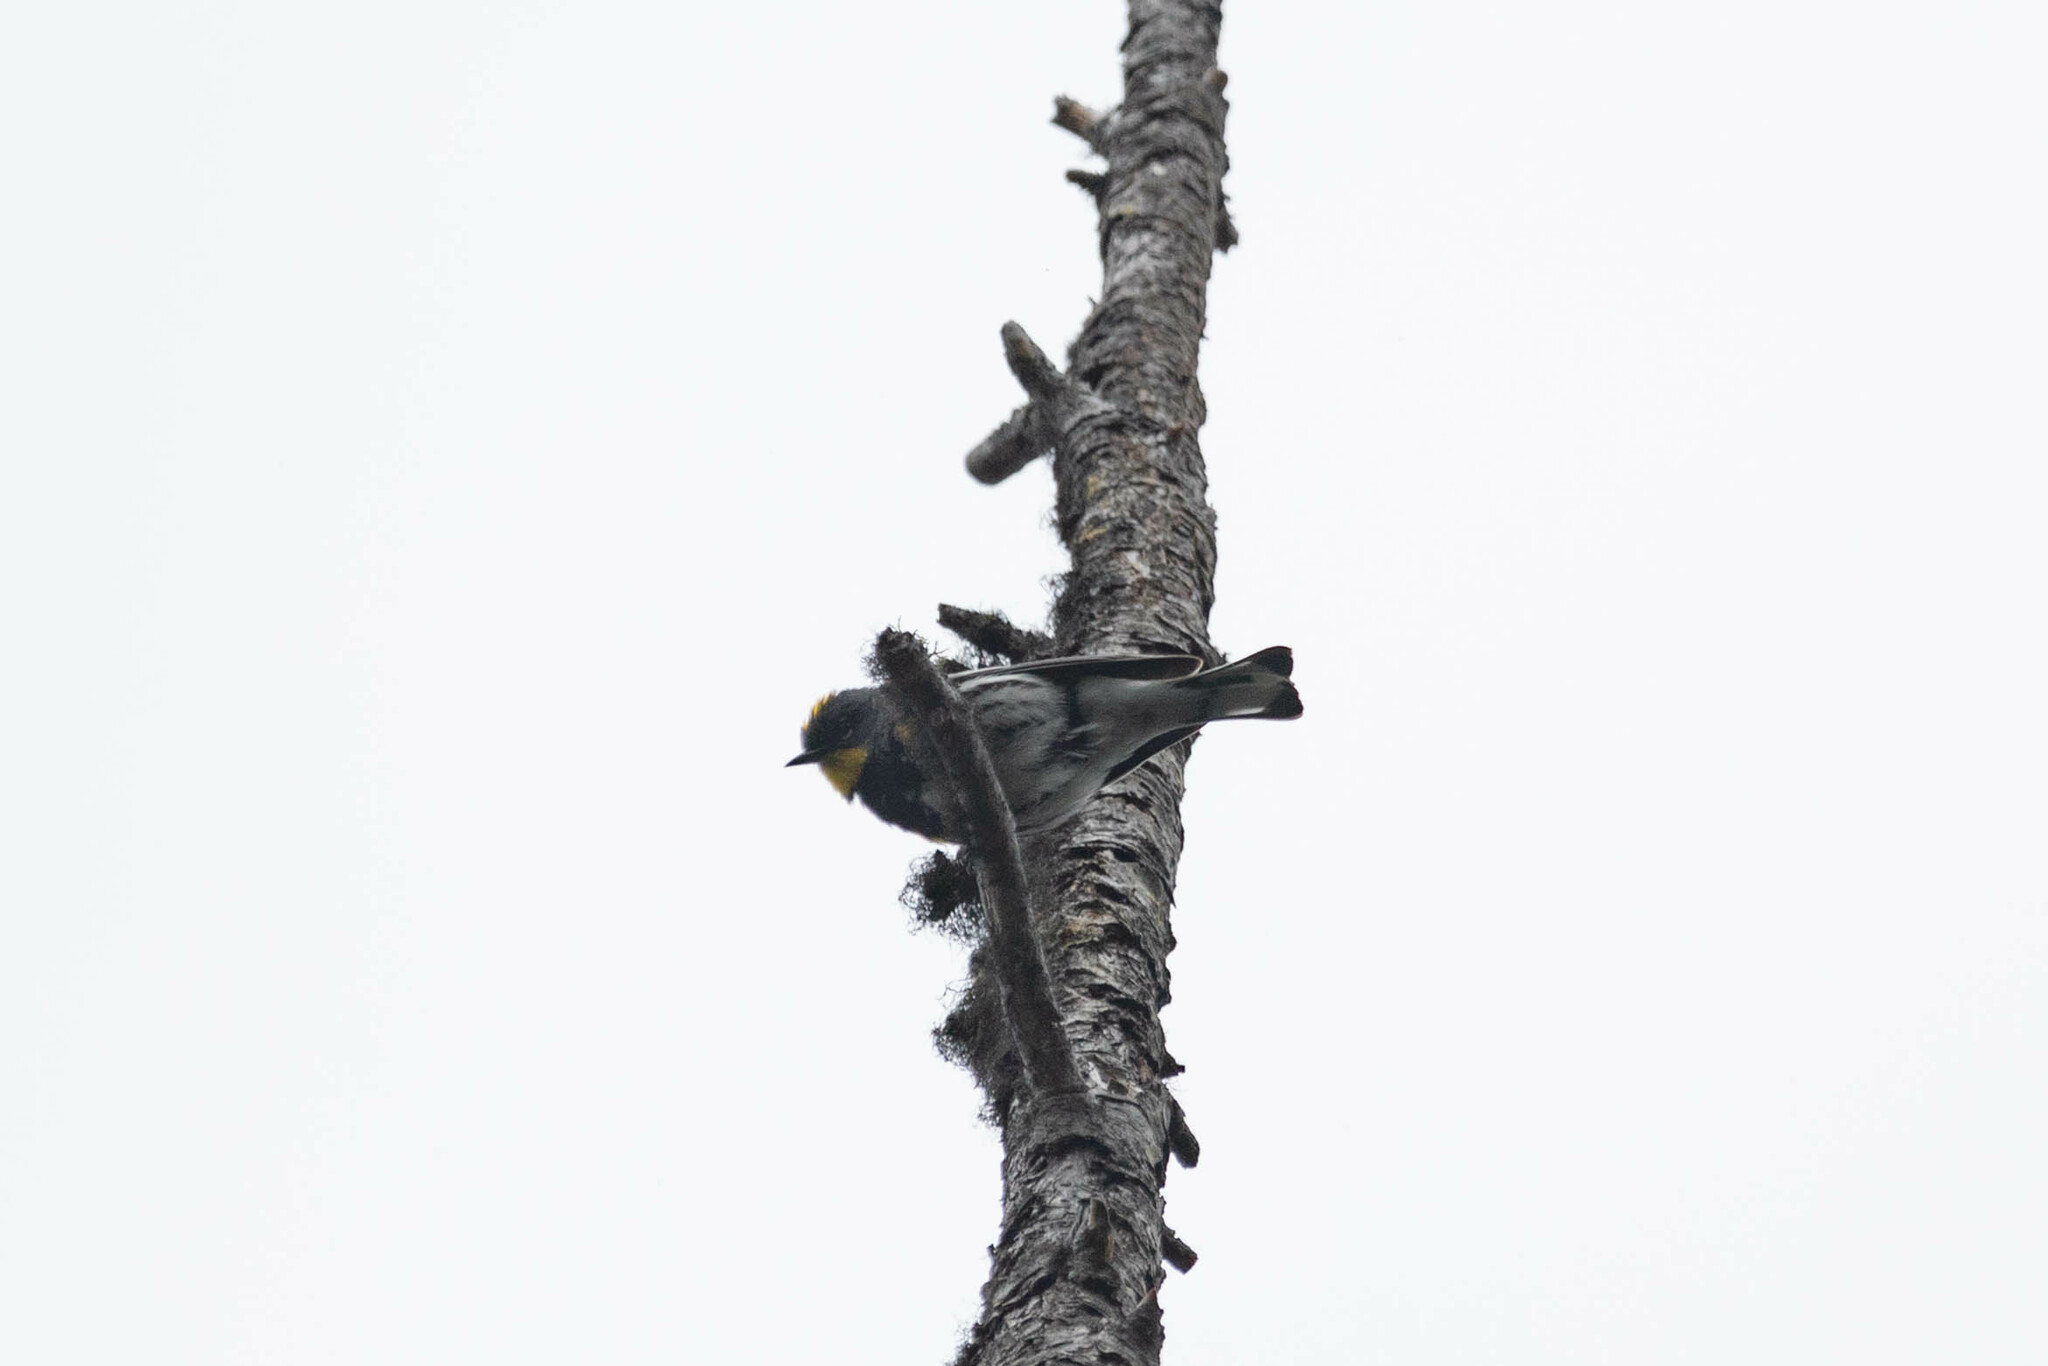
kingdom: Animalia
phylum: Chordata
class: Aves
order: Passeriformes
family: Parulidae
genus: Setophaga
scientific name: Setophaga auduboni
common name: Audubon's warbler
